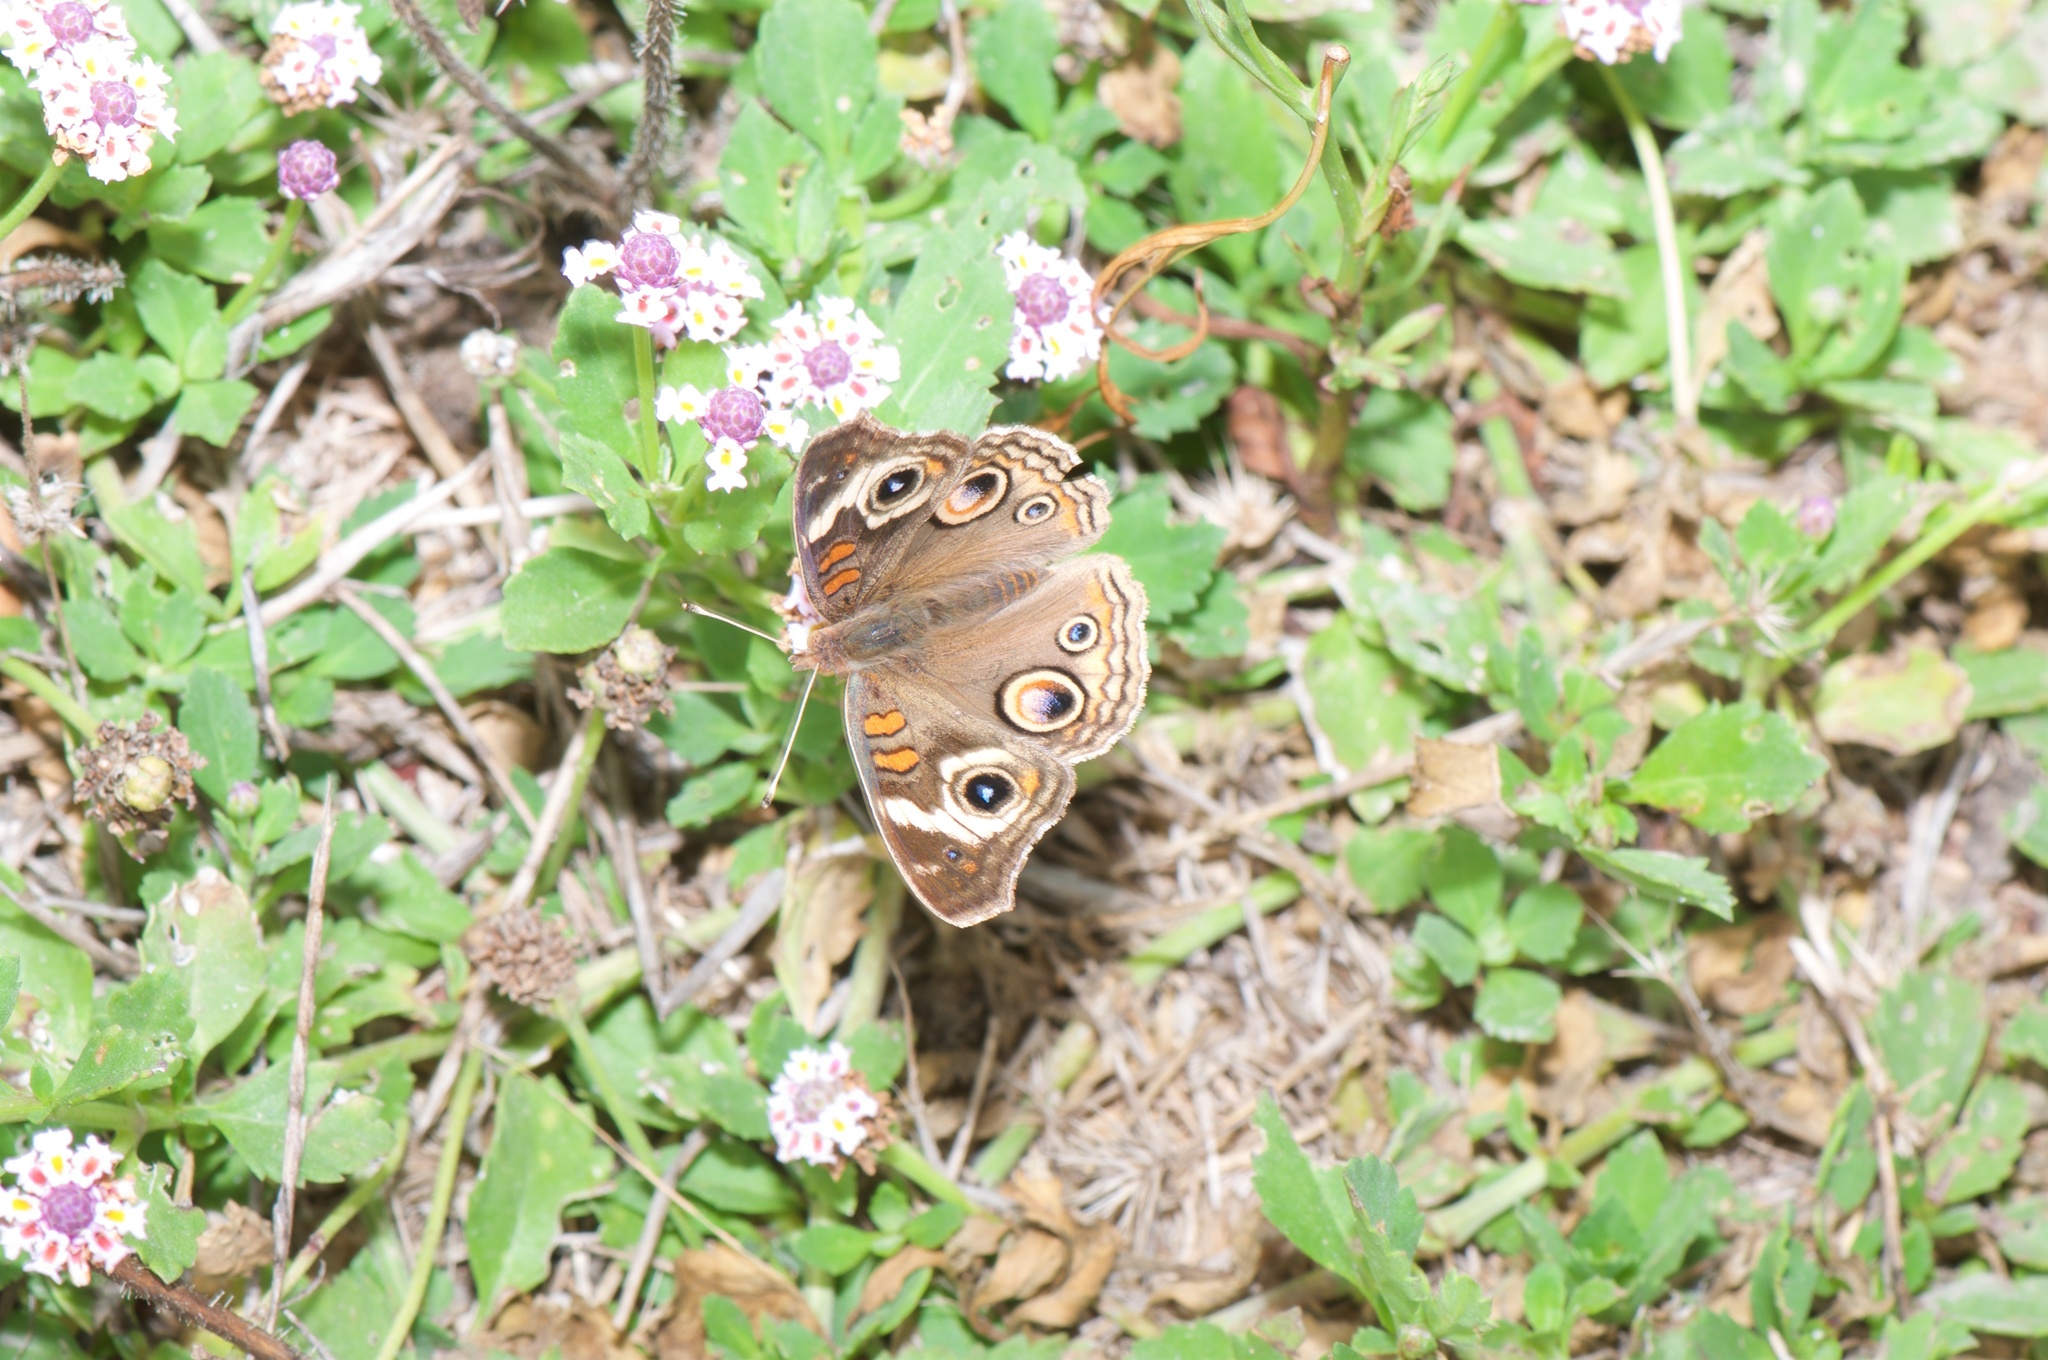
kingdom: Animalia
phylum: Arthropoda
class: Insecta
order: Lepidoptera
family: Nymphalidae
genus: Junonia
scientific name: Junonia grisea
